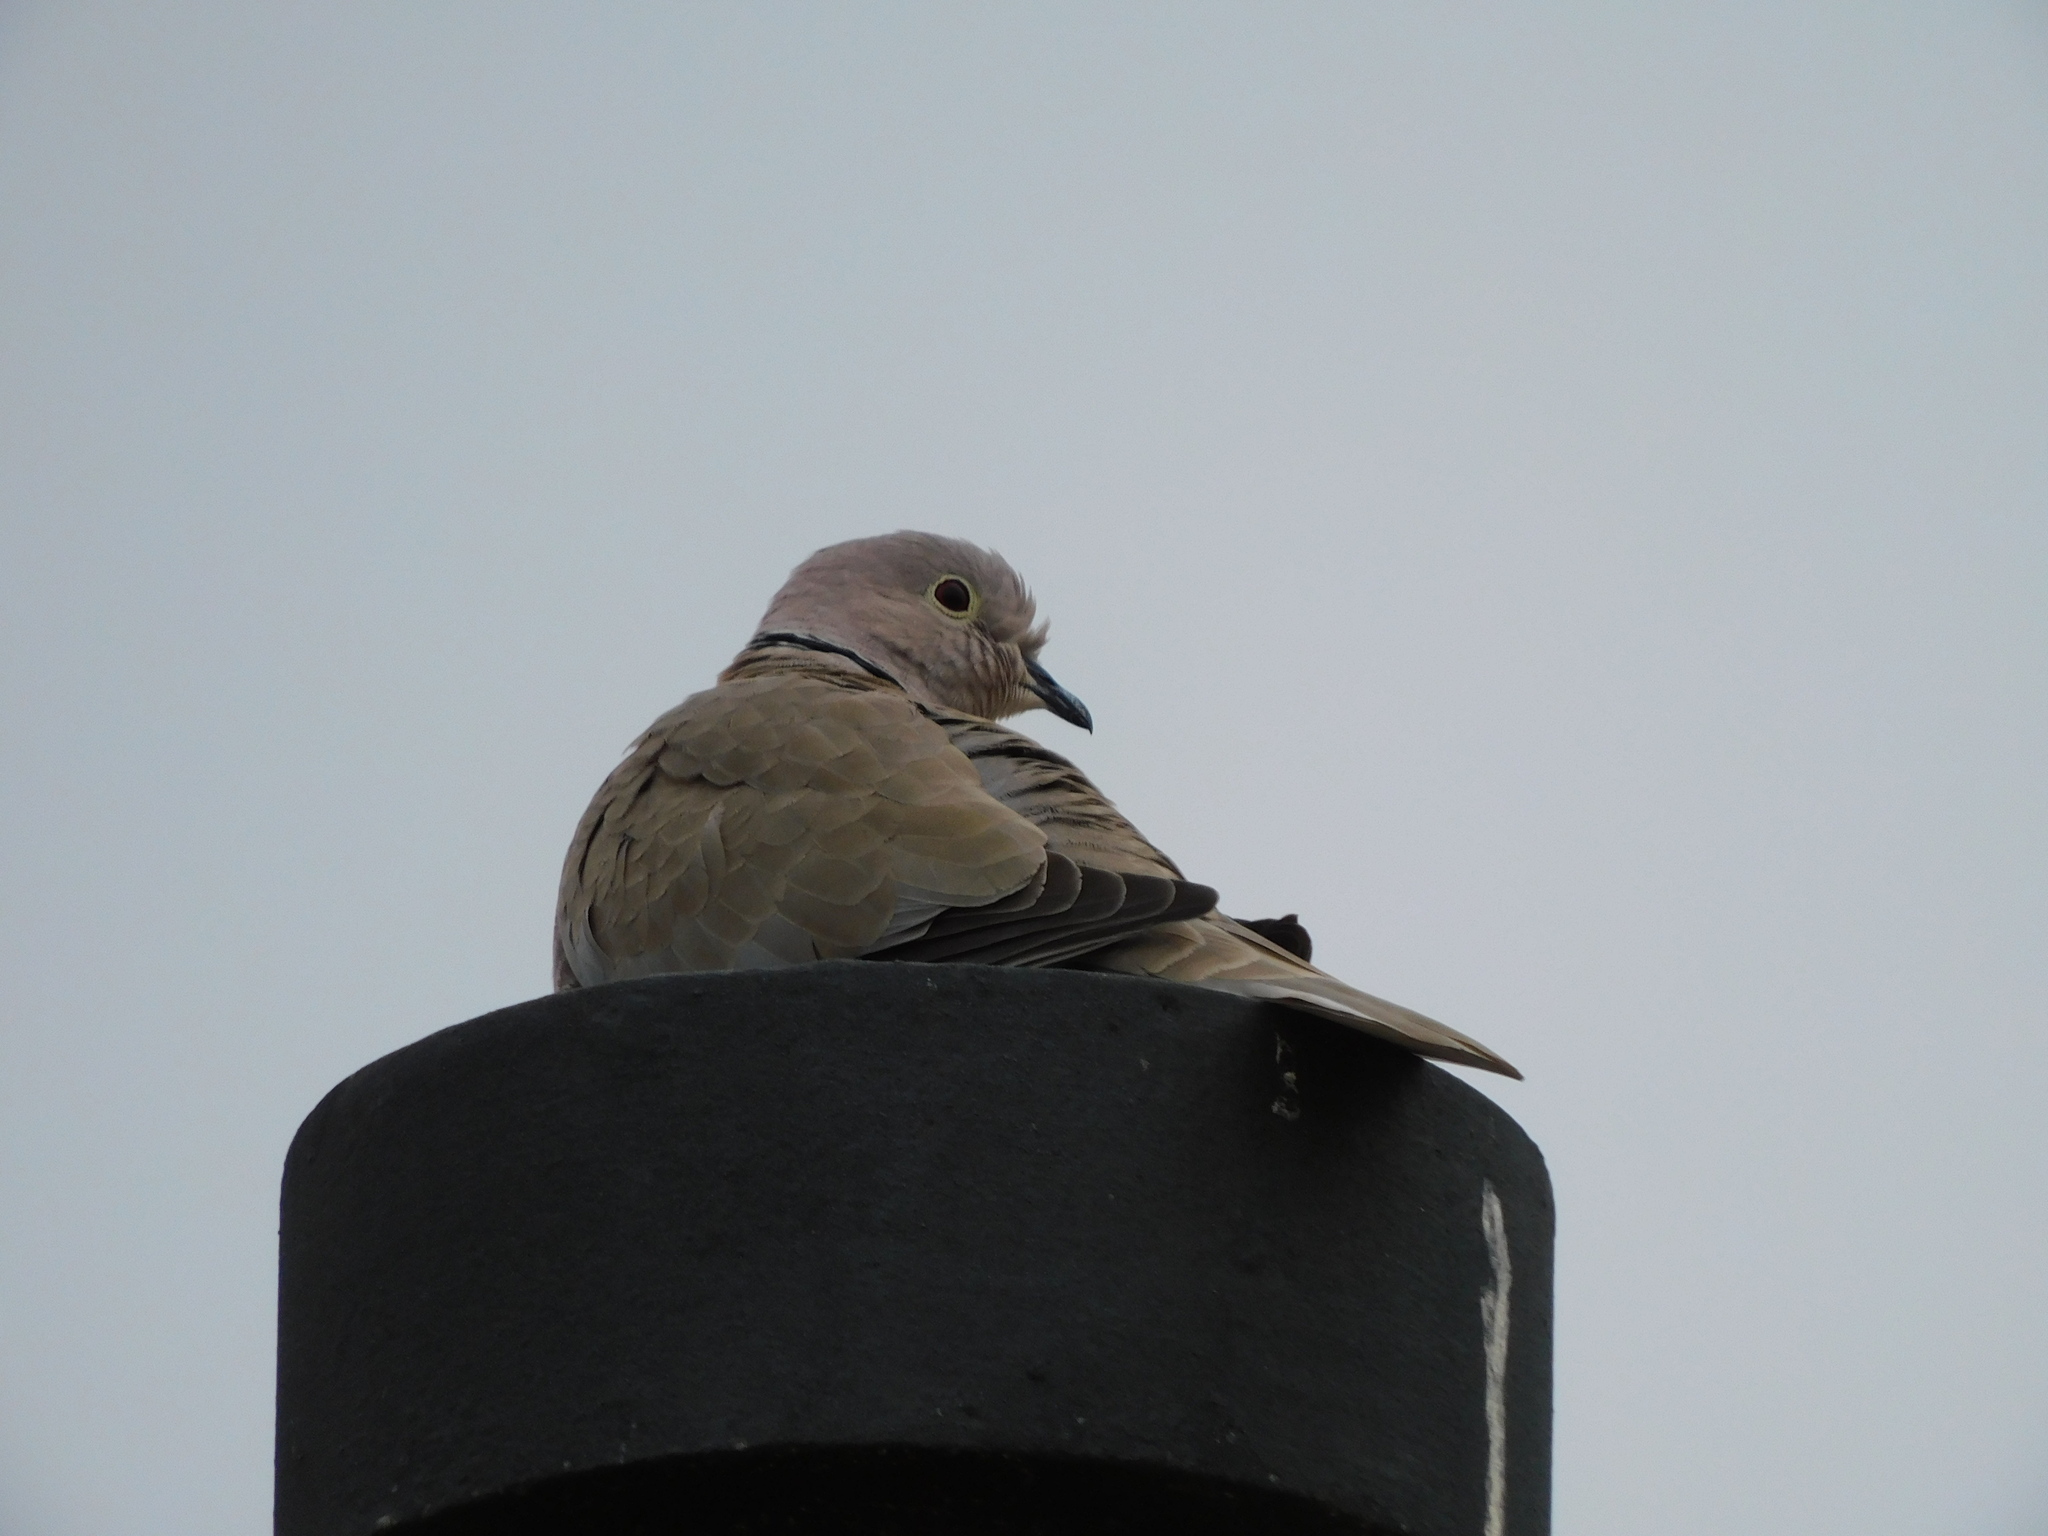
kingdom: Animalia
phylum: Chordata
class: Aves
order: Columbiformes
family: Columbidae
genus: Streptopelia
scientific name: Streptopelia decaocto
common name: Eurasian collared dove
